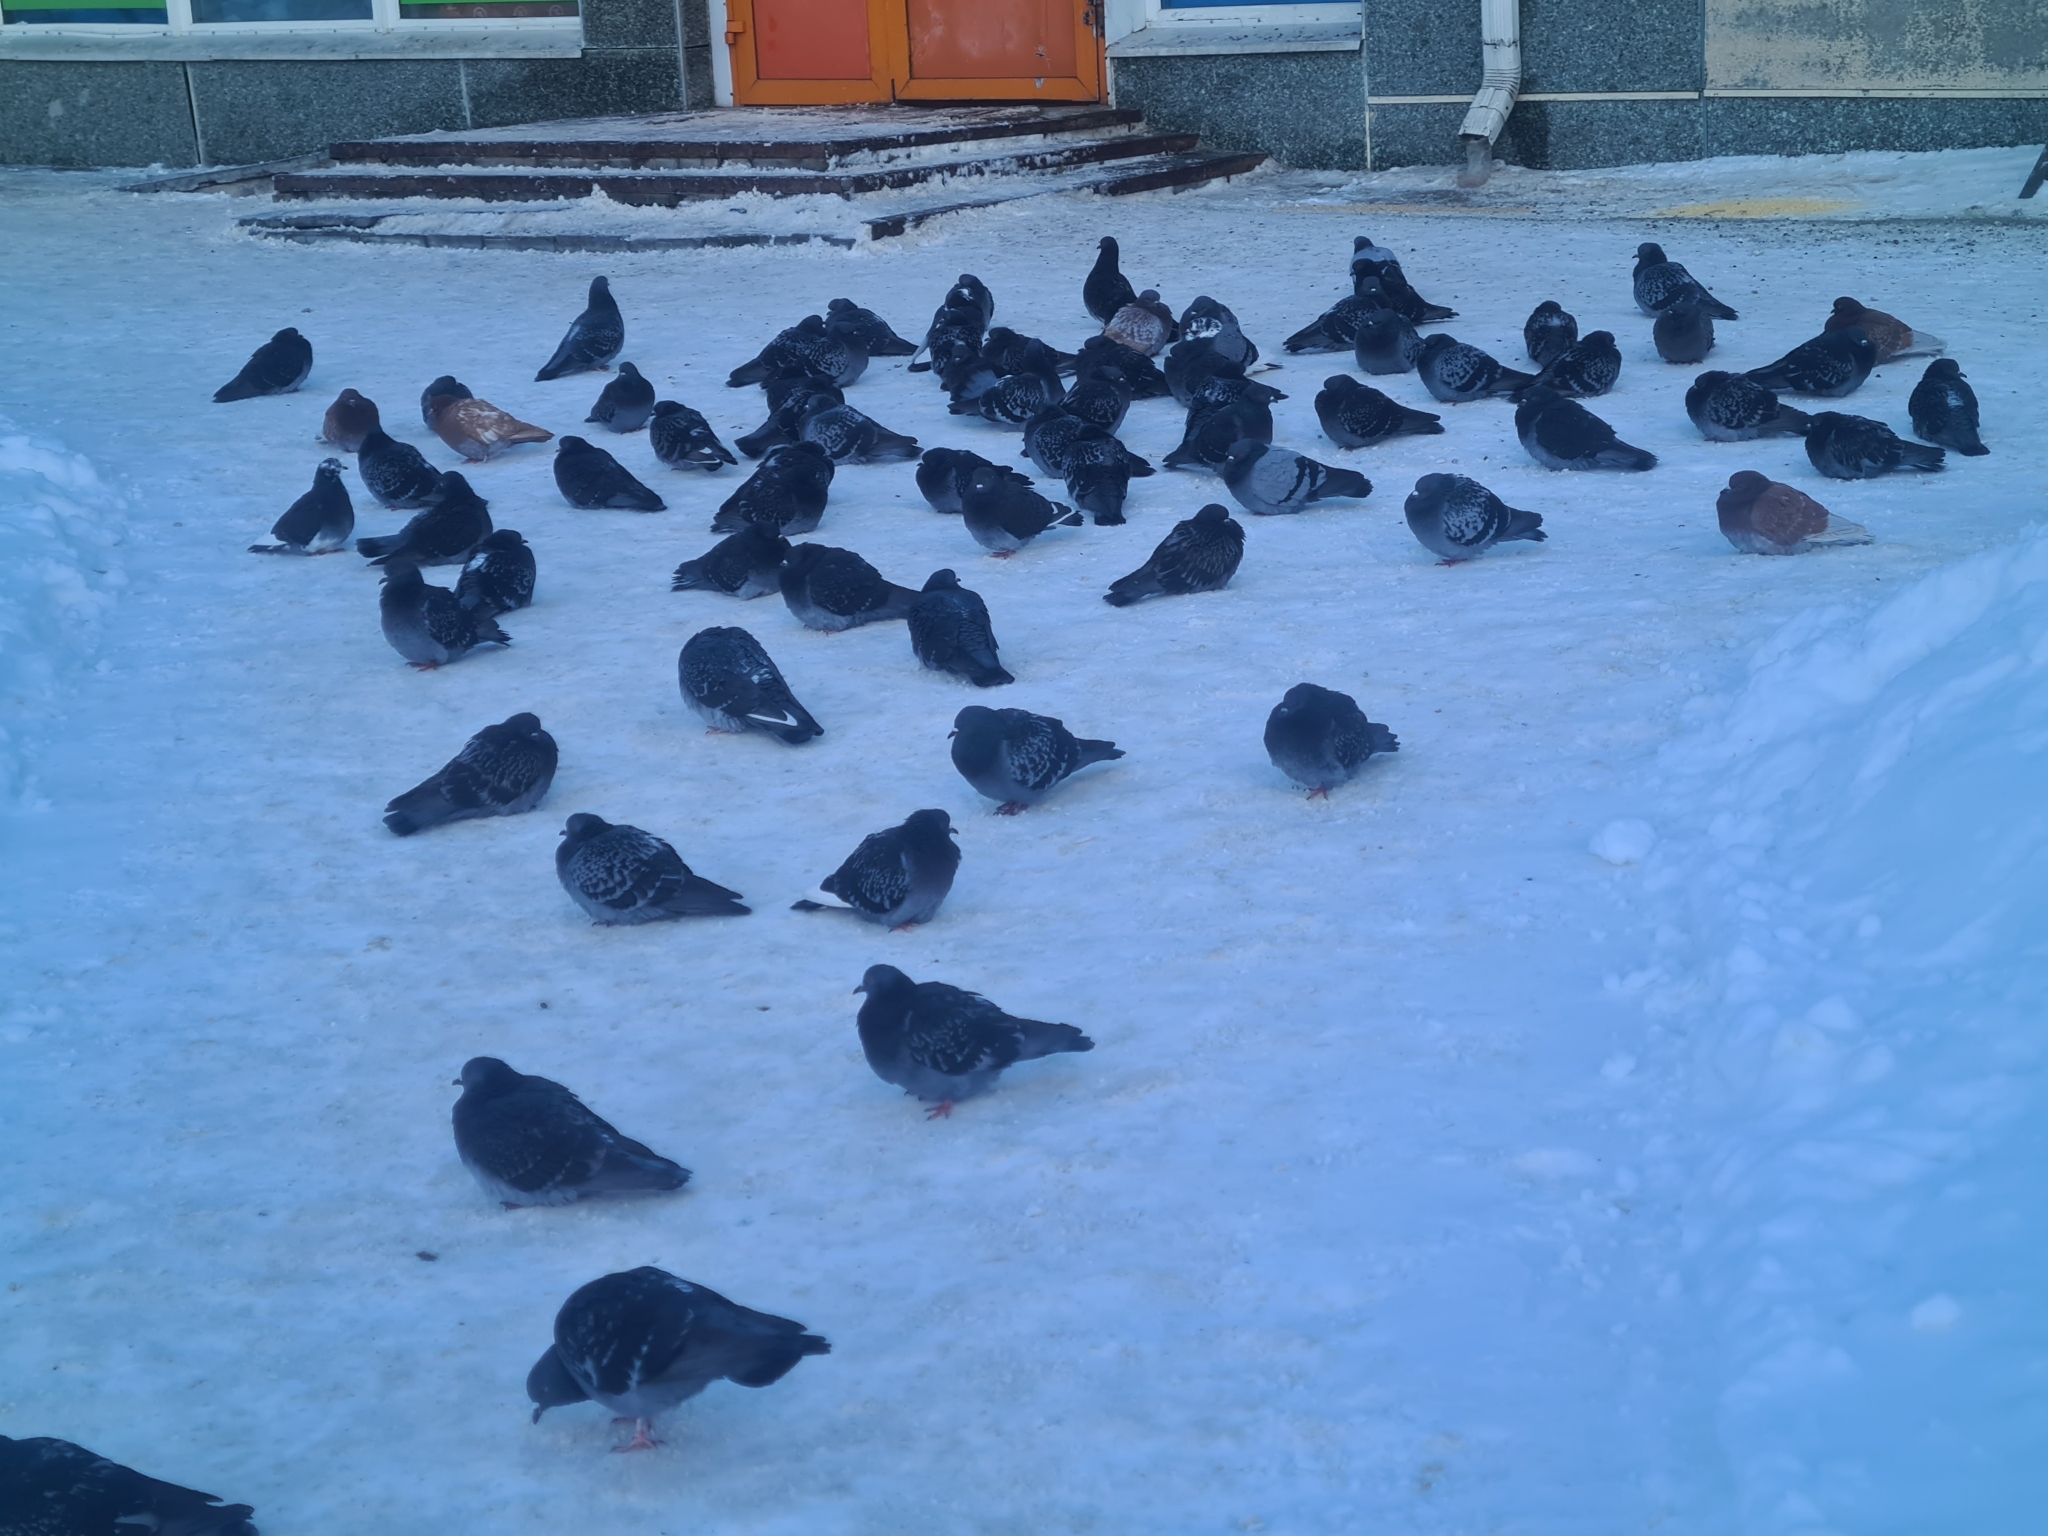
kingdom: Animalia
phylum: Chordata
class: Aves
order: Columbiformes
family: Columbidae
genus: Columba
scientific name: Columba livia
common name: Rock pigeon
